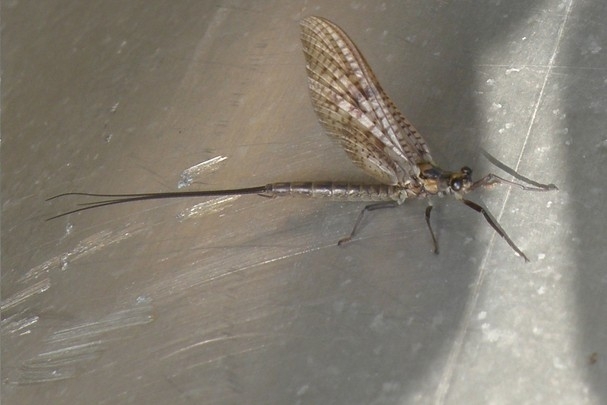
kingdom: Animalia
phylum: Arthropoda
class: Insecta
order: Ephemeroptera
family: Ephemeridae
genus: Ephemera
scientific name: Ephemera vulgata
